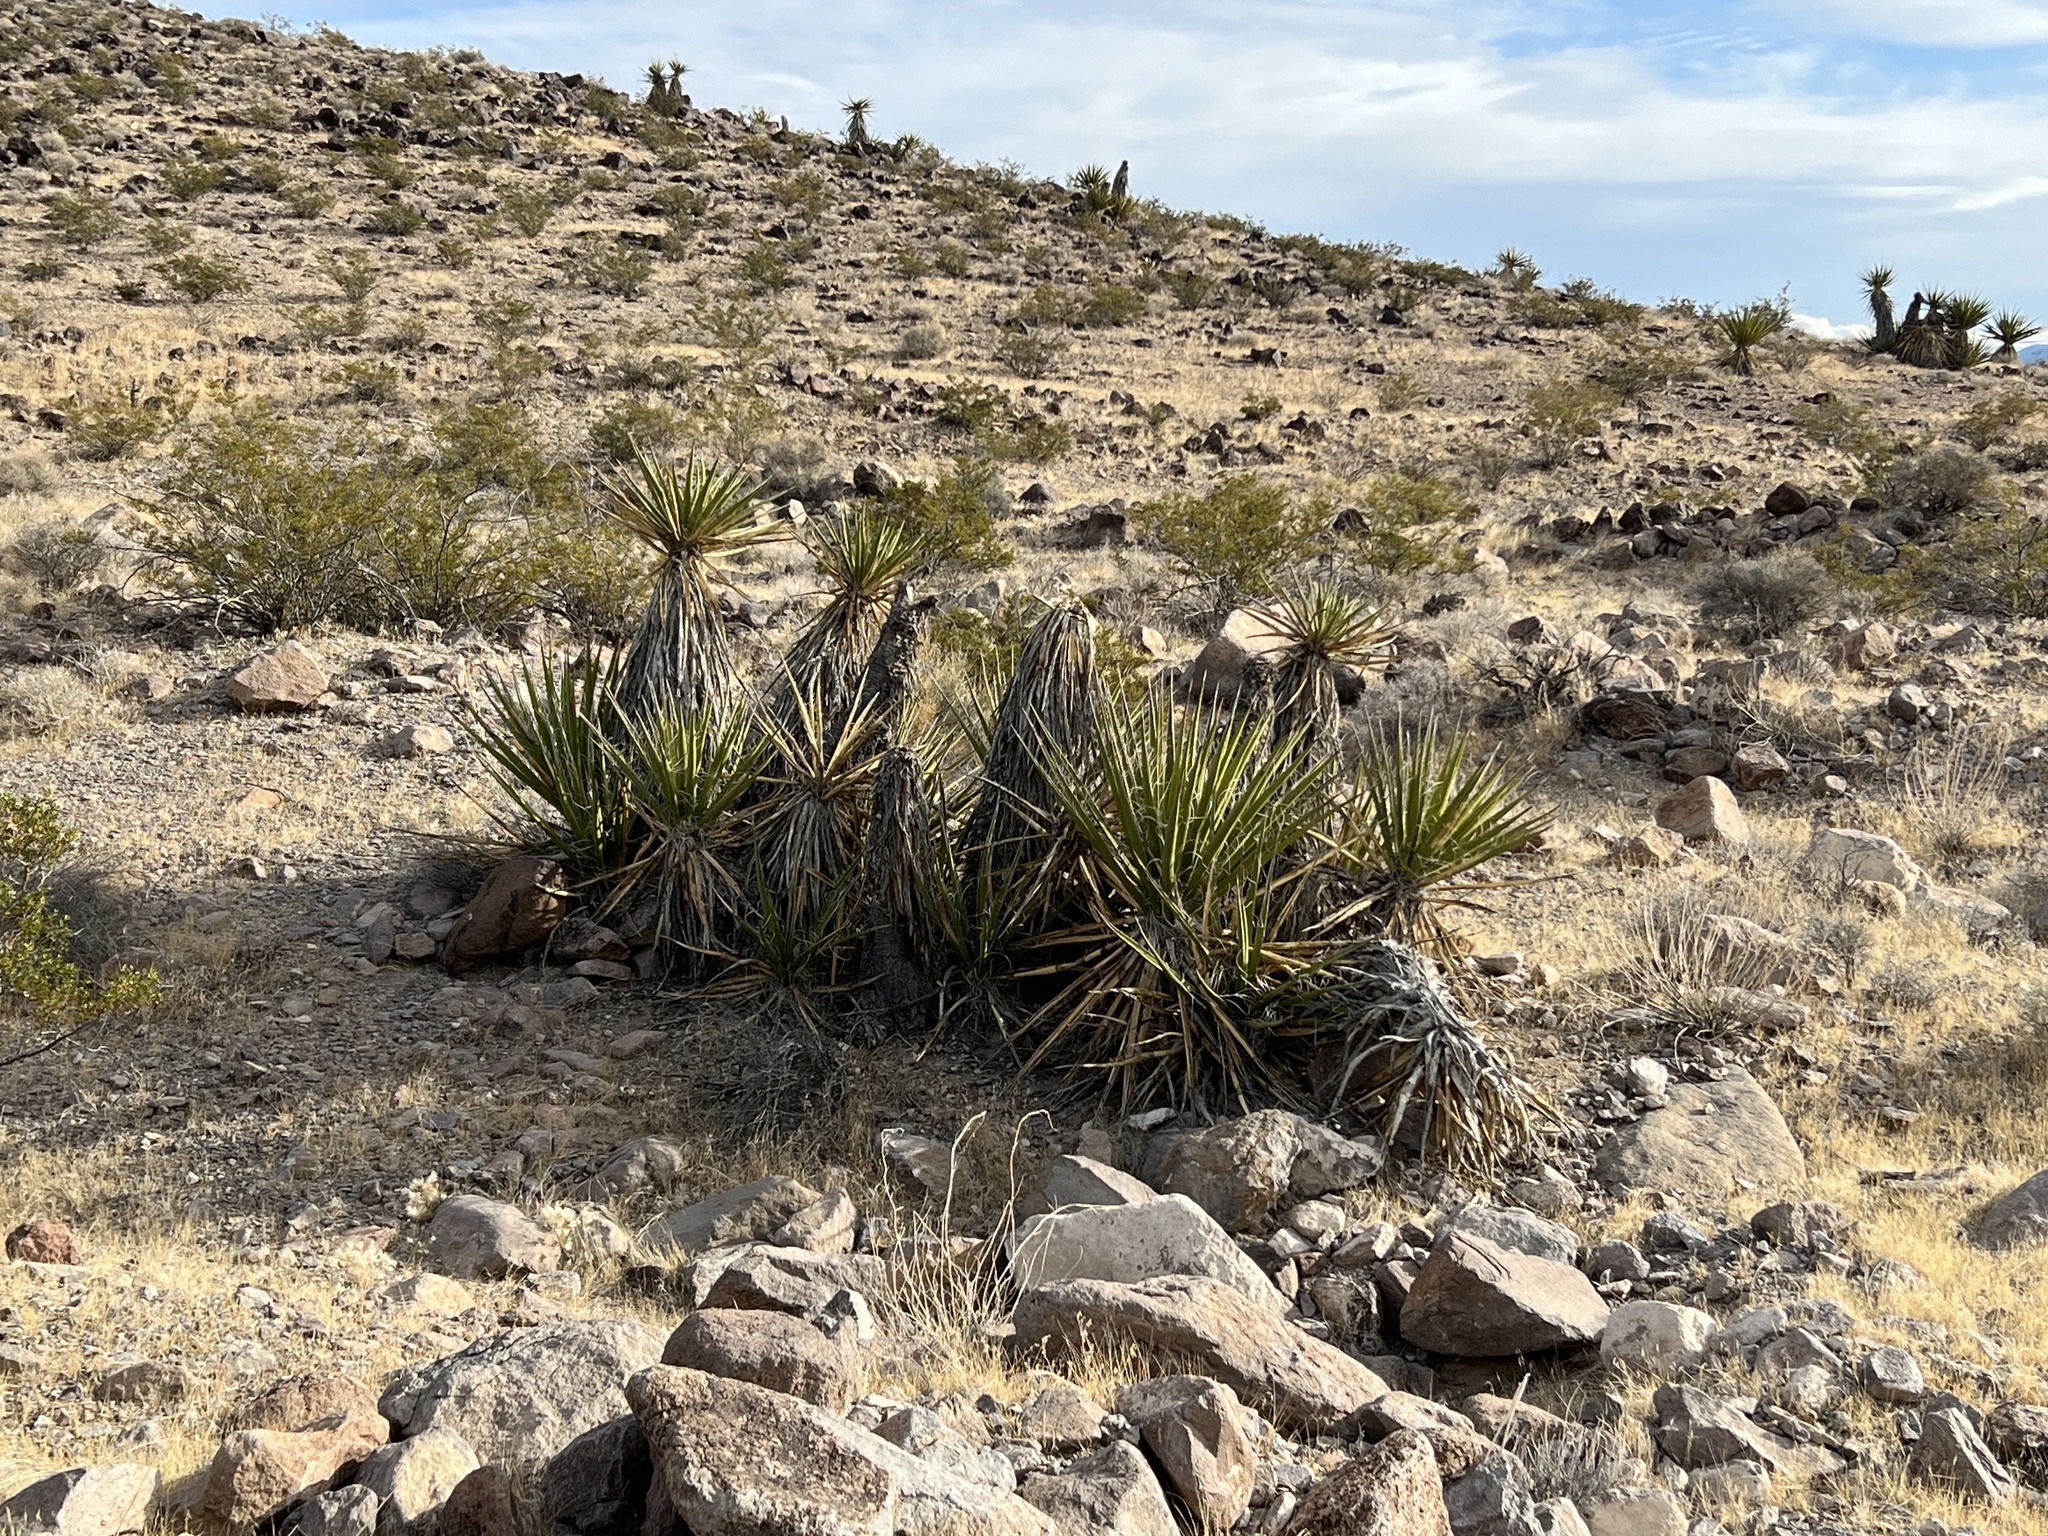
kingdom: Plantae
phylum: Tracheophyta
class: Liliopsida
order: Asparagales
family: Asparagaceae
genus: Yucca
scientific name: Yucca schidigera
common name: Mojave yucca
